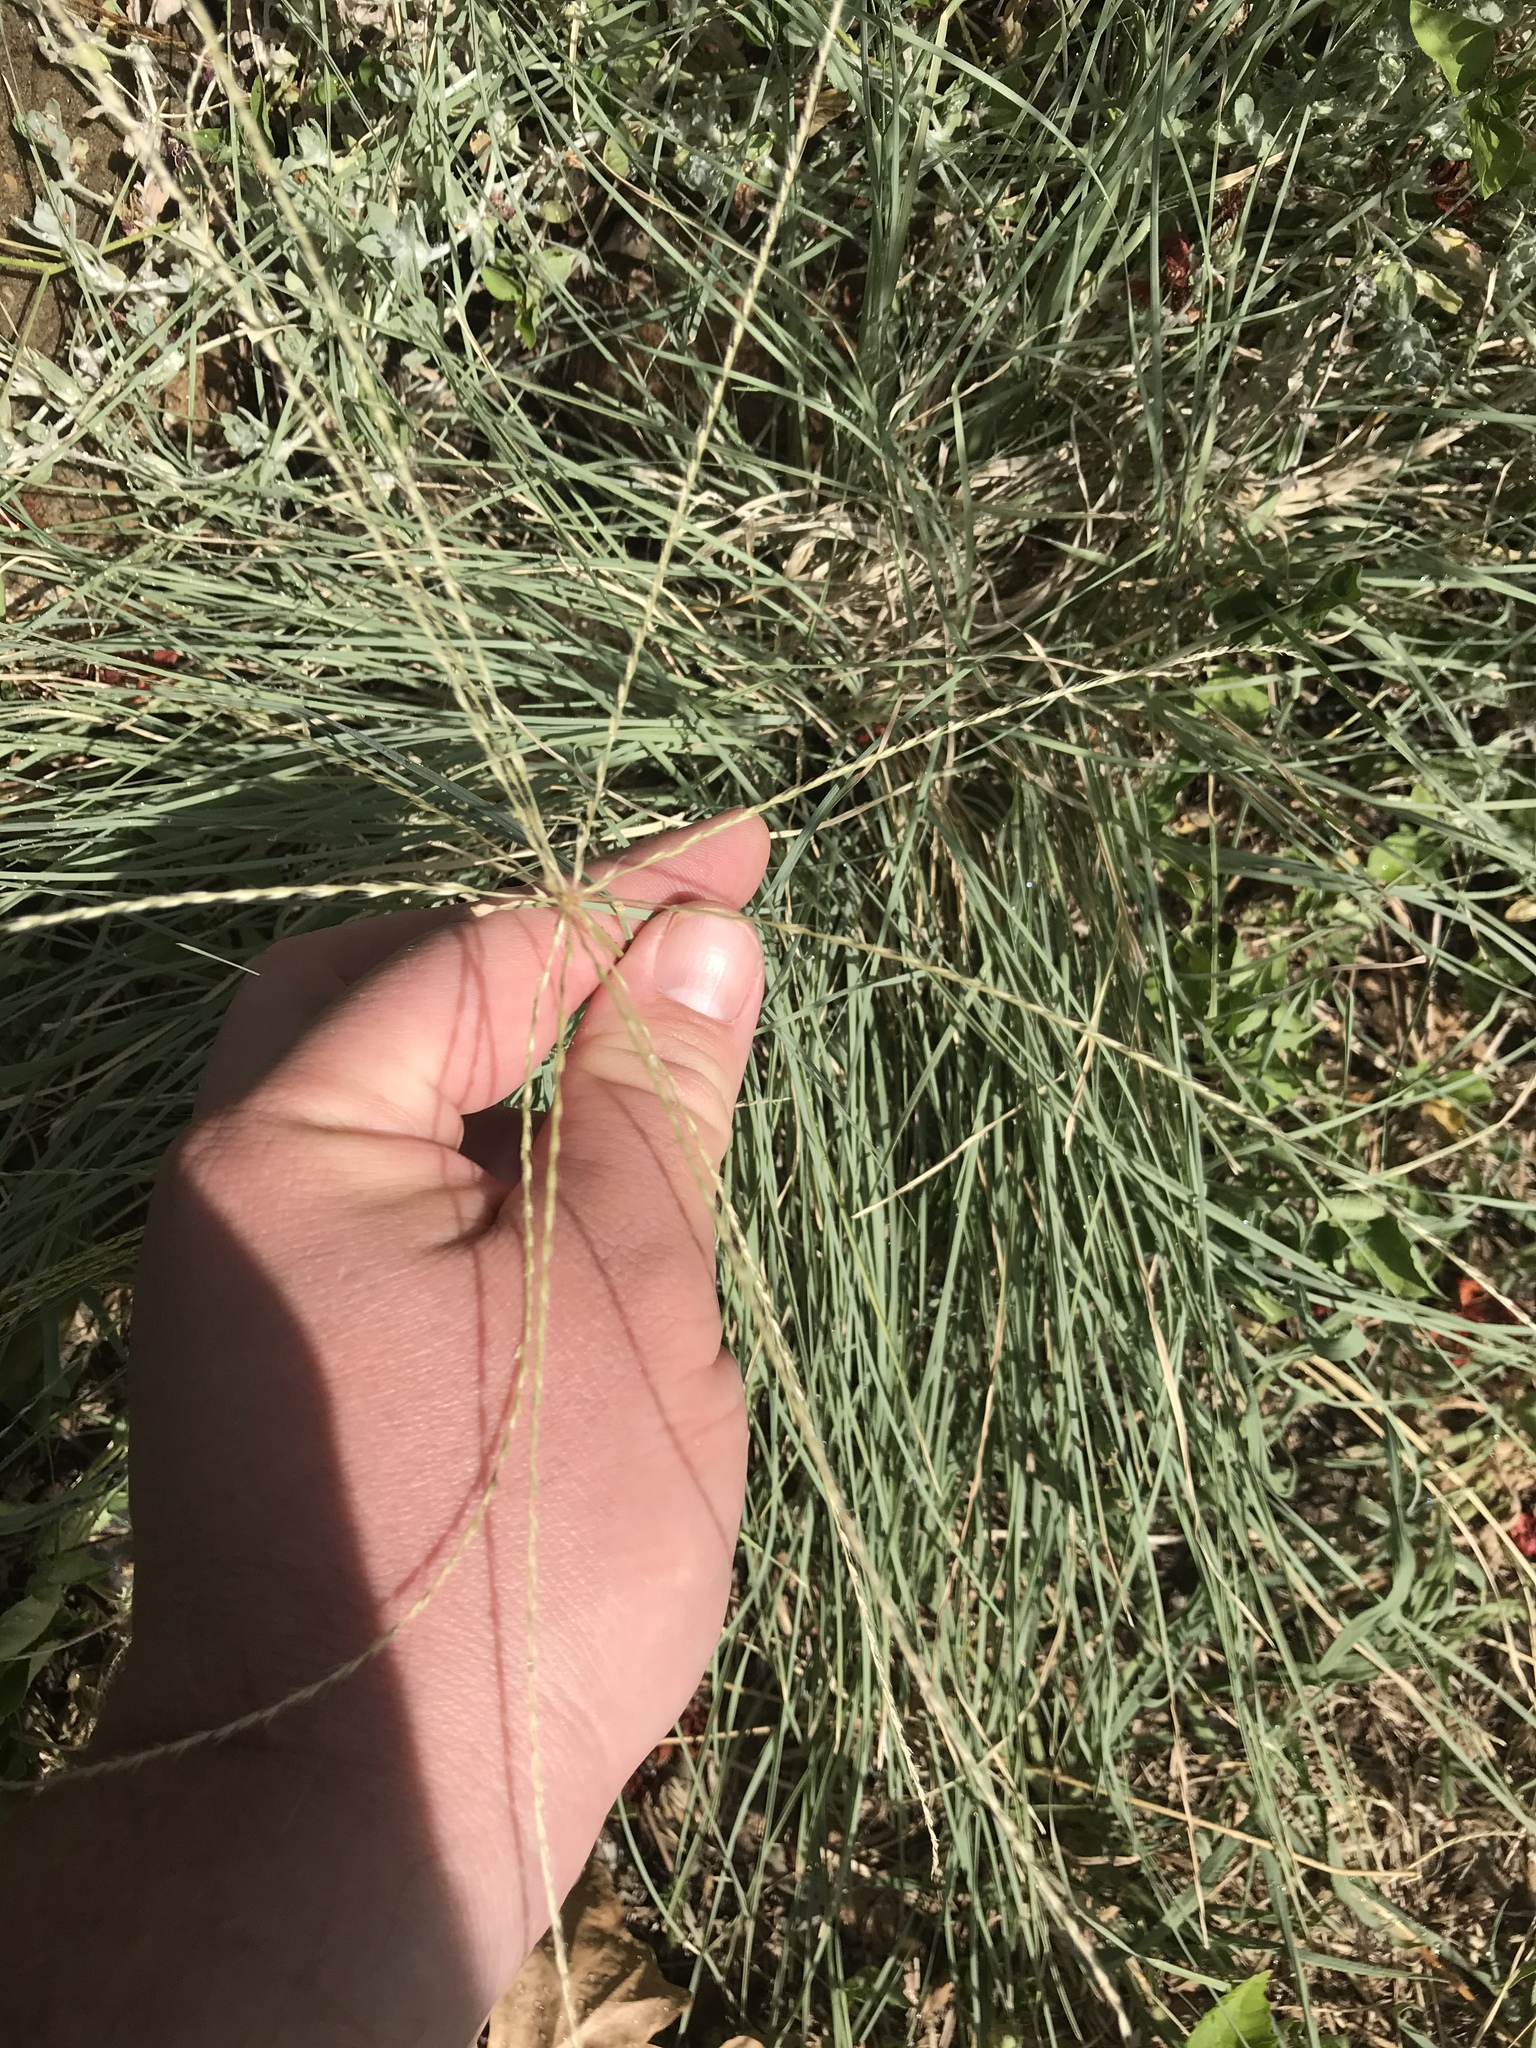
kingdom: Plantae
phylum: Tracheophyta
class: Liliopsida
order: Poales
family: Poaceae
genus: Chloris
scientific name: Chloris andropogonoides
